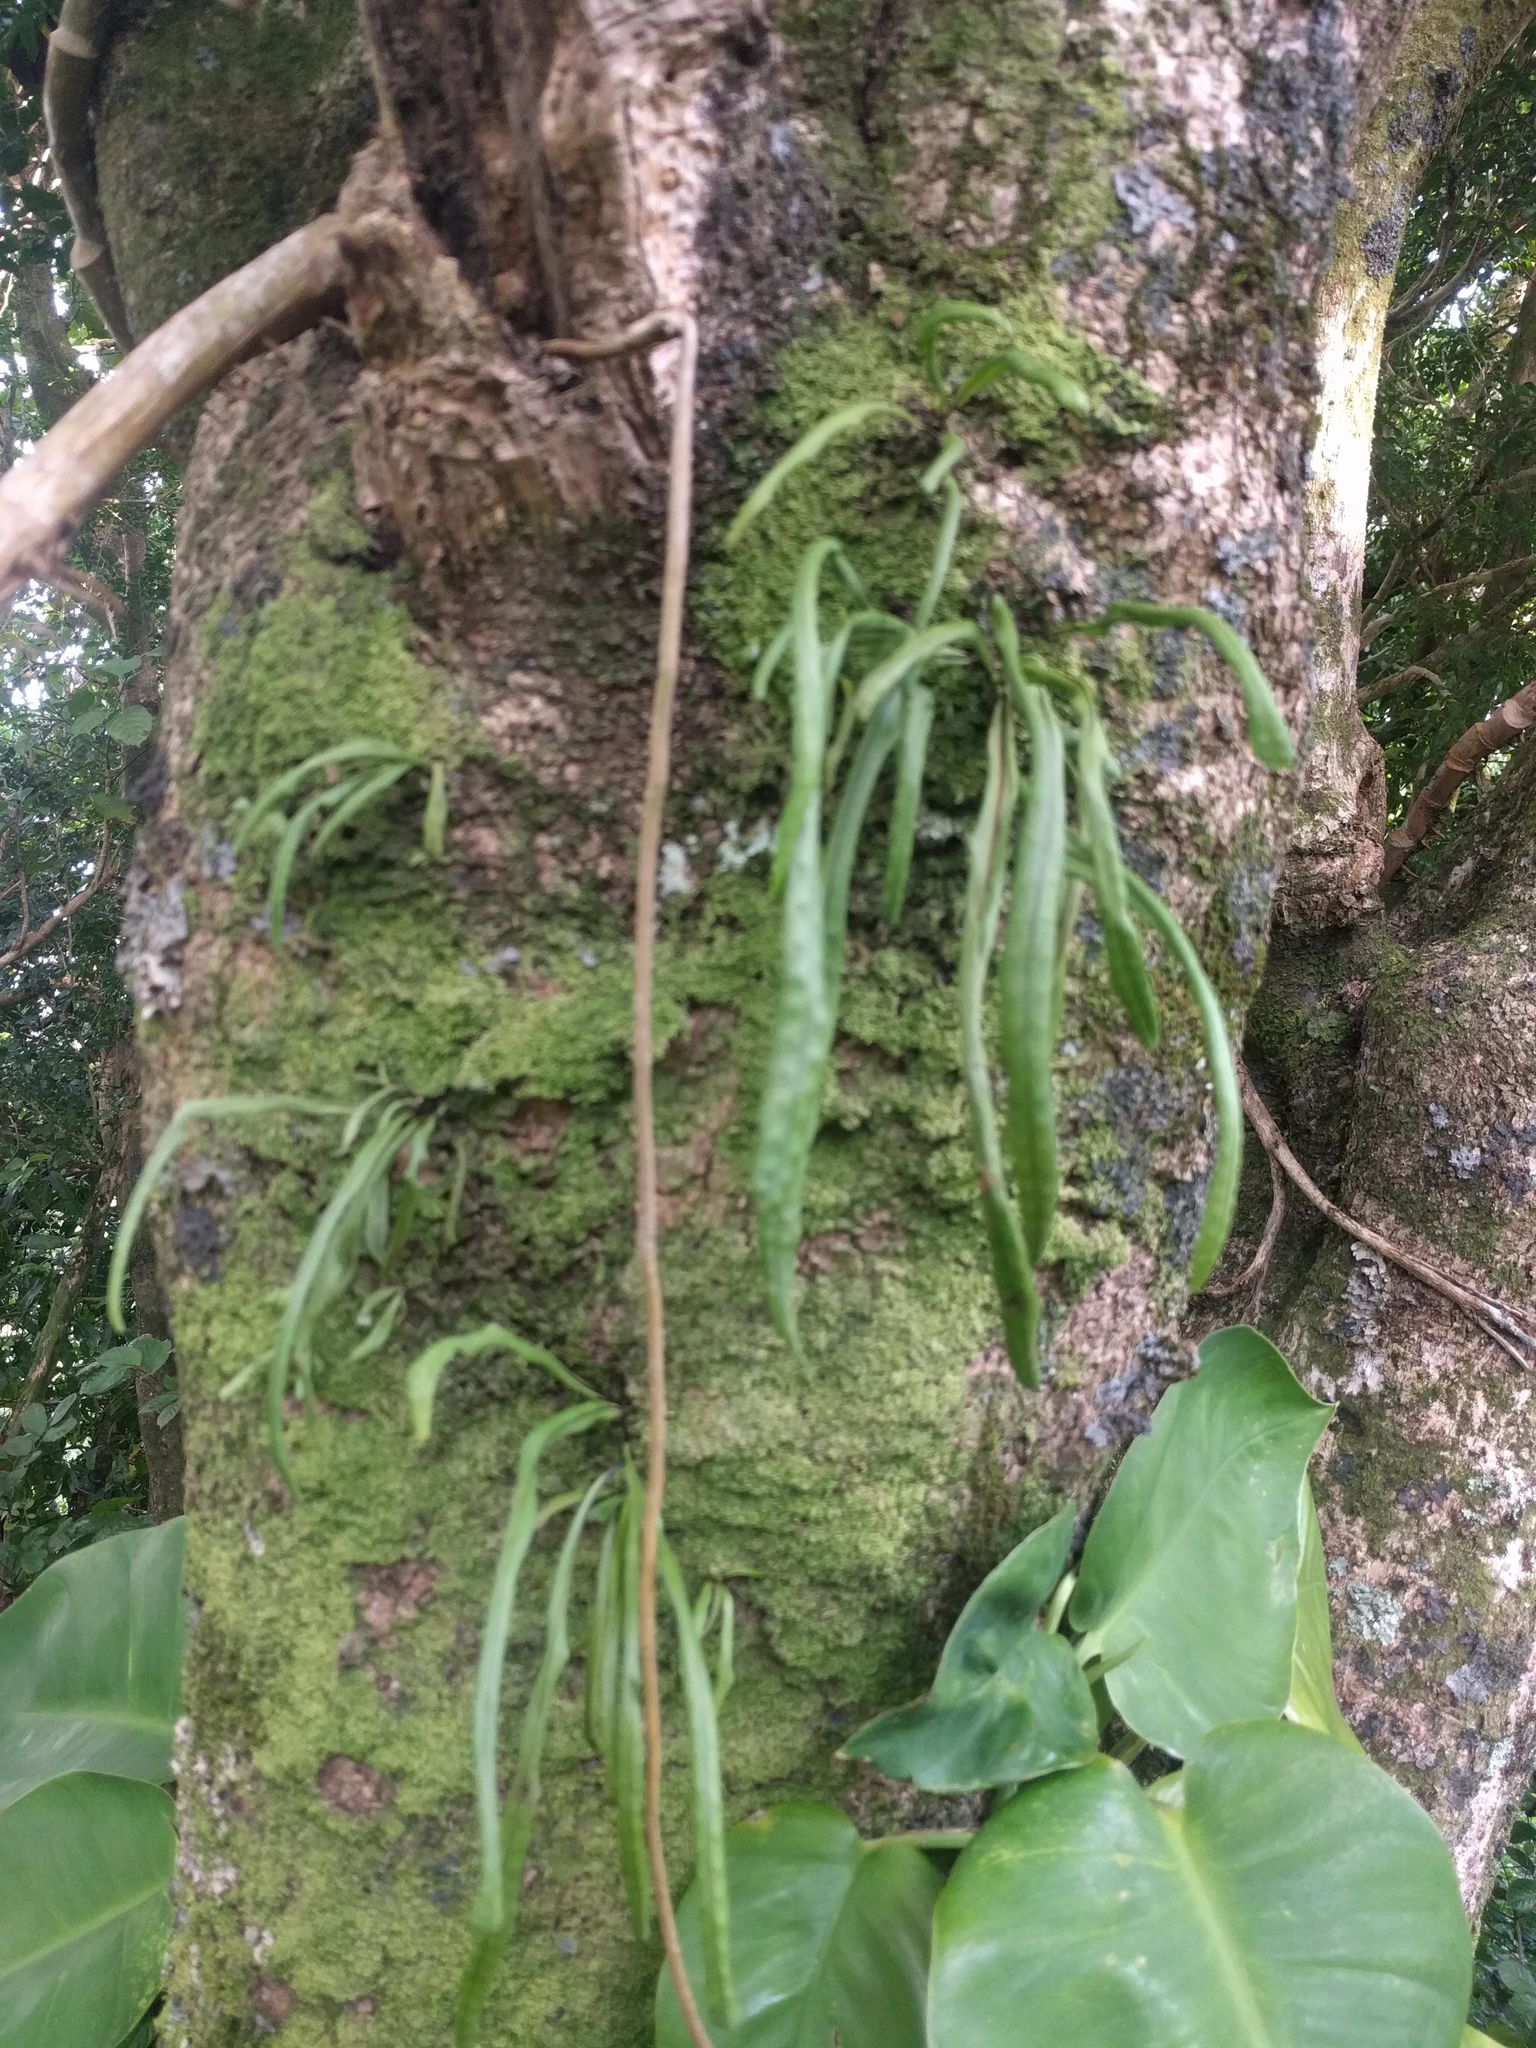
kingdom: Plantae
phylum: Tracheophyta
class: Polypodiopsida
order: Polypodiales
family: Polypodiaceae
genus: Lepisorus
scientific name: Lepisorus thunbergianus
